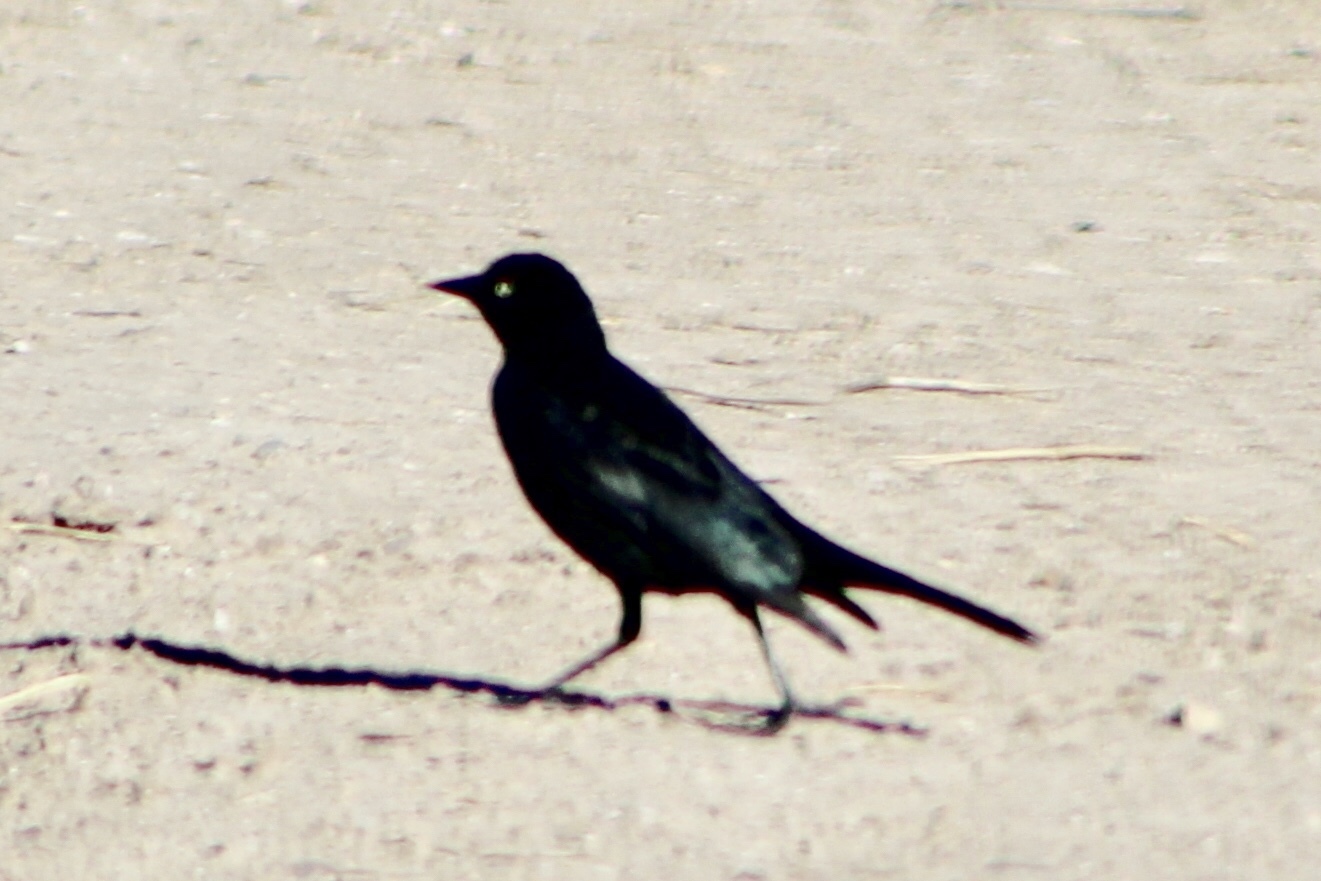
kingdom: Animalia
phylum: Chordata
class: Aves
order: Passeriformes
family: Icteridae
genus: Euphagus
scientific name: Euphagus cyanocephalus
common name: Brewer's blackbird
